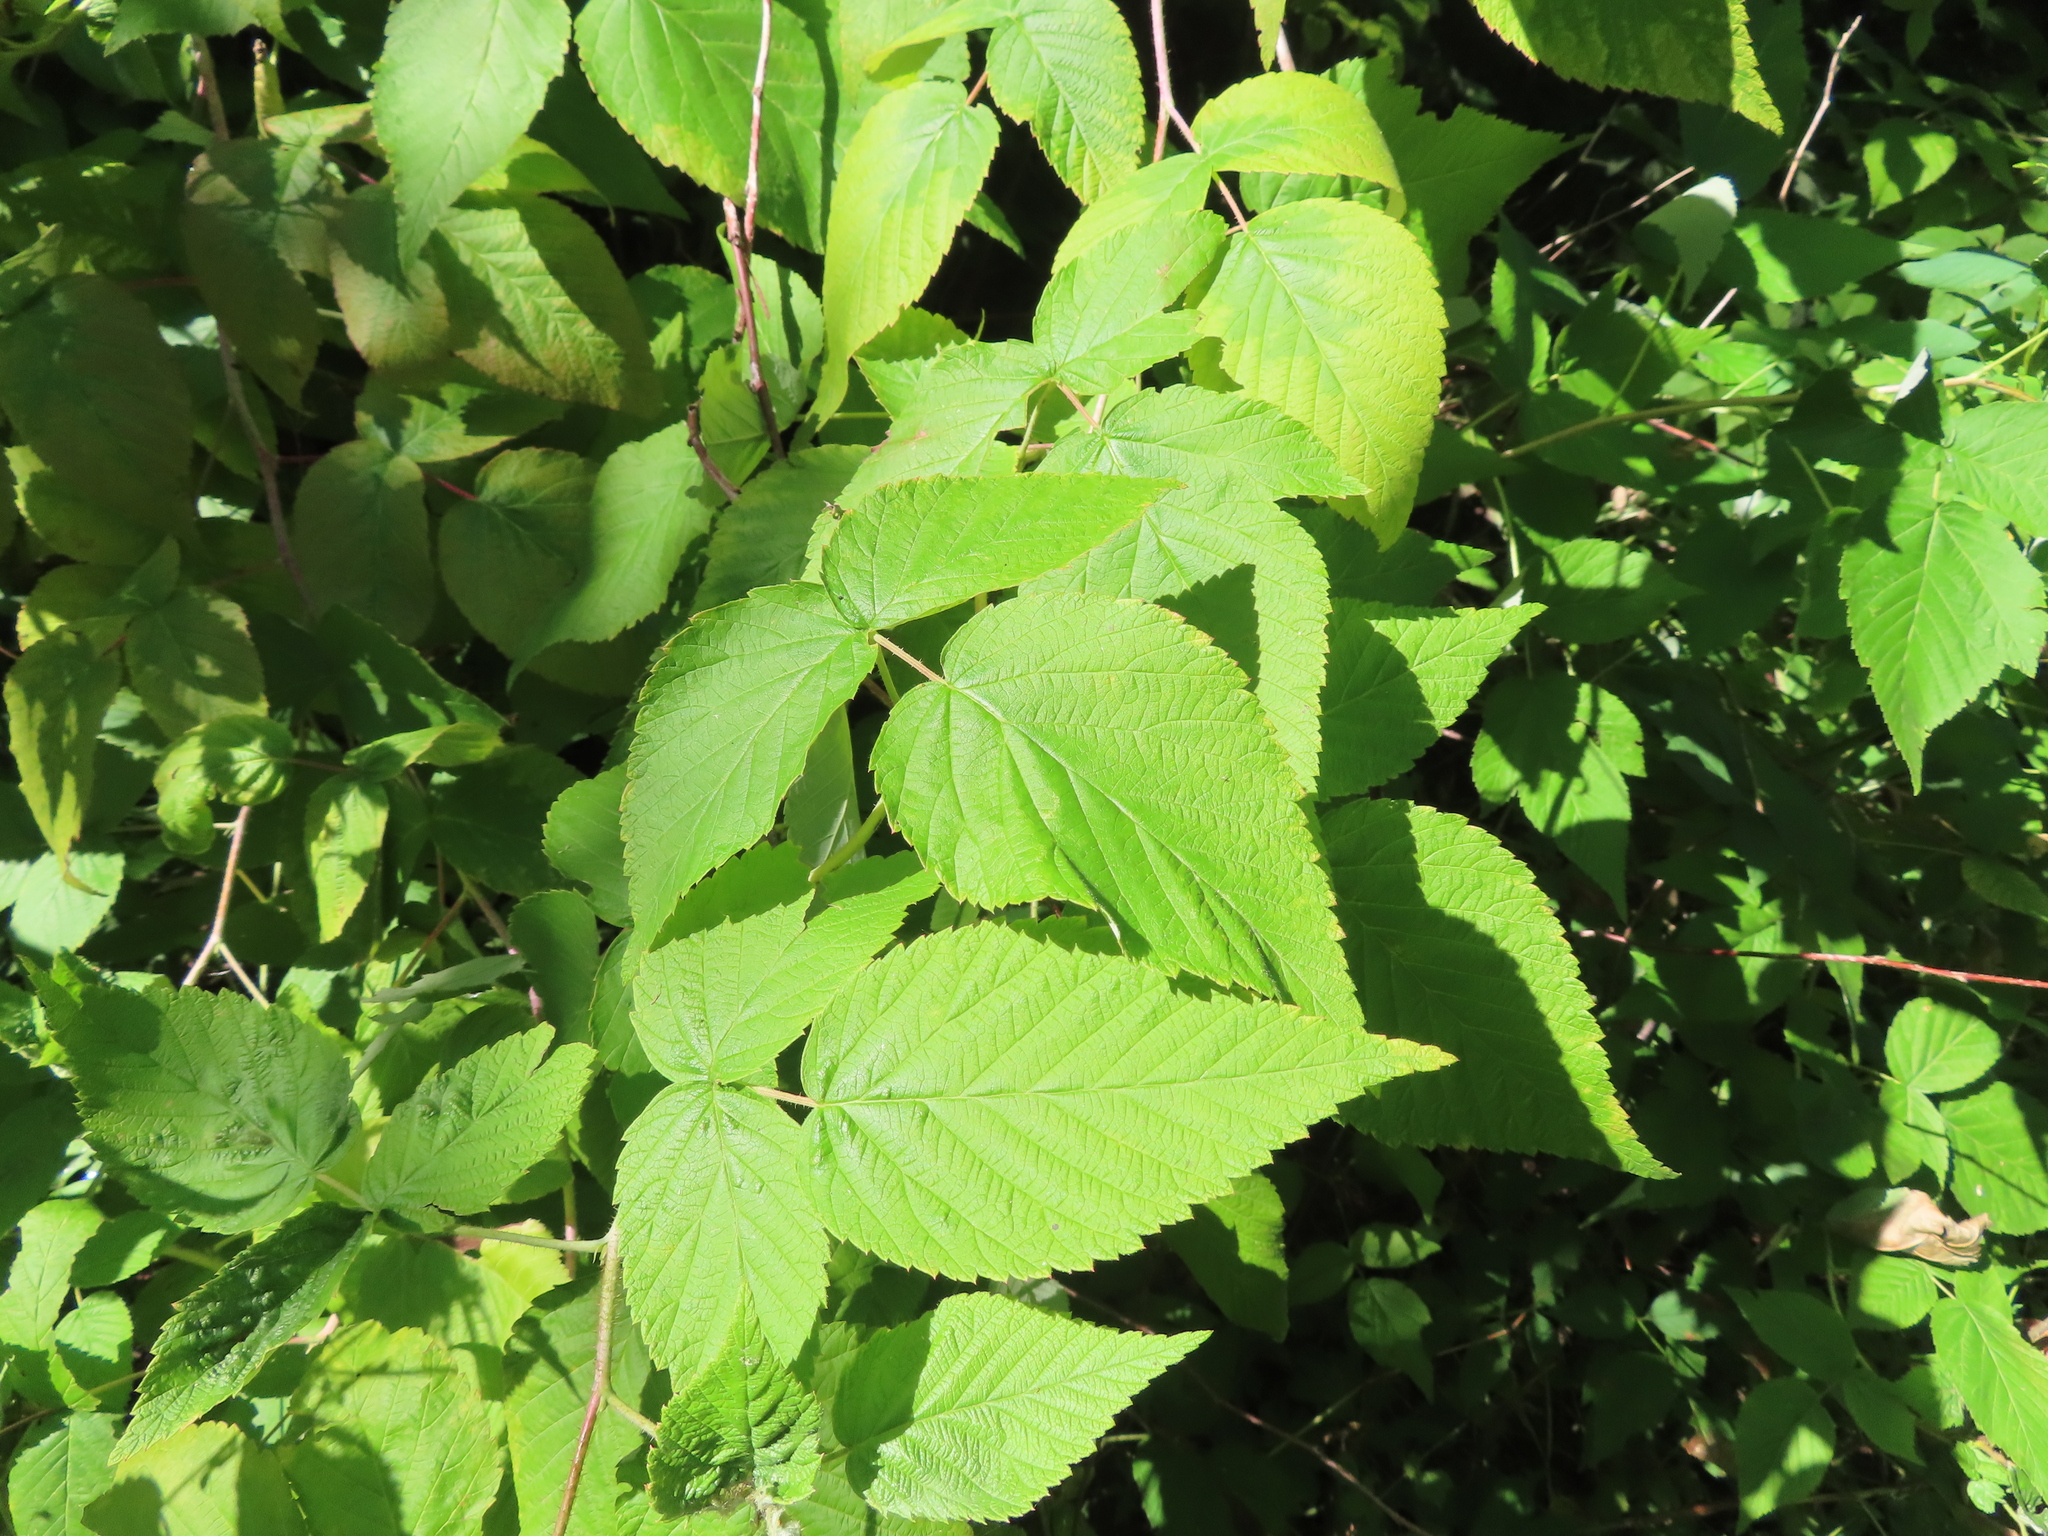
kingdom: Animalia
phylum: Arthropoda
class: Insecta
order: Diptera
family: Agromyzidae
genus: Agromyza
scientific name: Agromyza vockerothi
